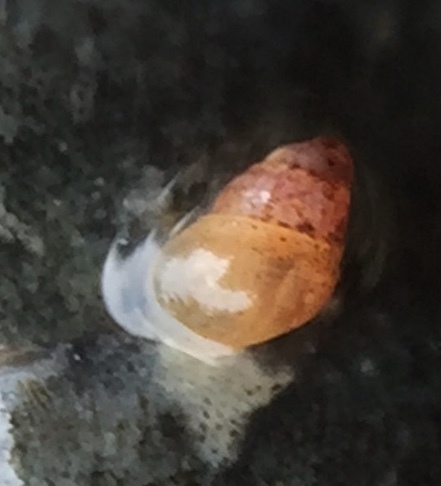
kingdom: Animalia
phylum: Mollusca
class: Gastropoda
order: Littorinimorpha
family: Anabathridae
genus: Pisinna
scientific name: Pisinna zosterophila
